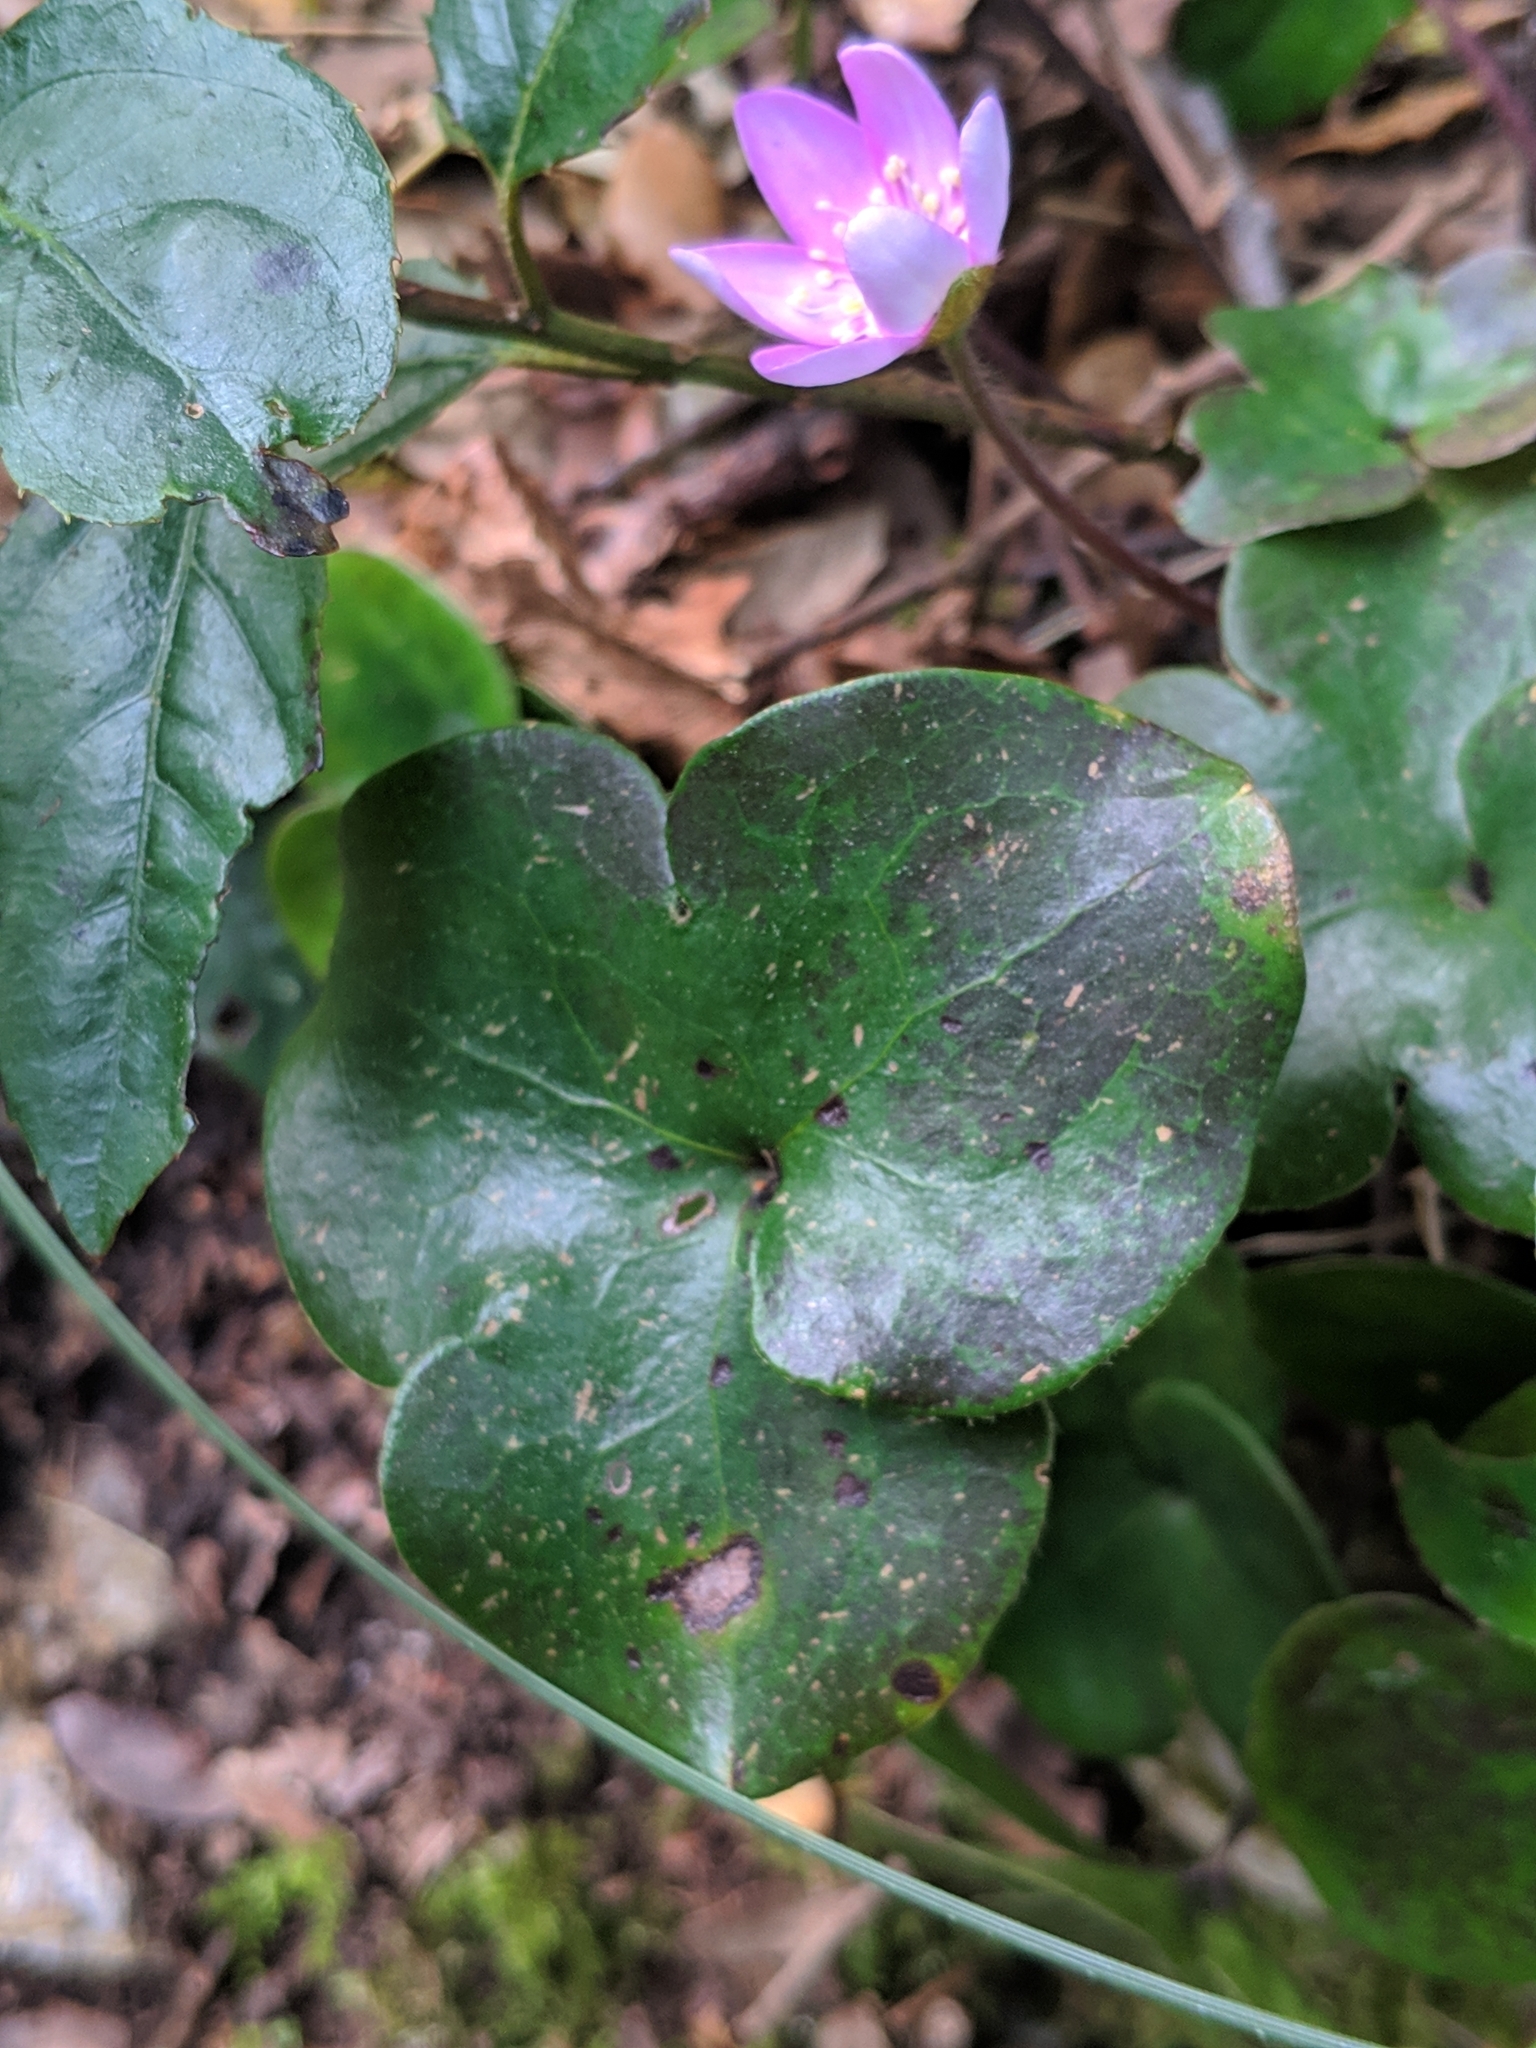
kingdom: Plantae
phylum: Tracheophyta
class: Magnoliopsida
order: Ranunculales
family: Ranunculaceae
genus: Hepatica
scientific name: Hepatica nobilis
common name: Liverleaf
